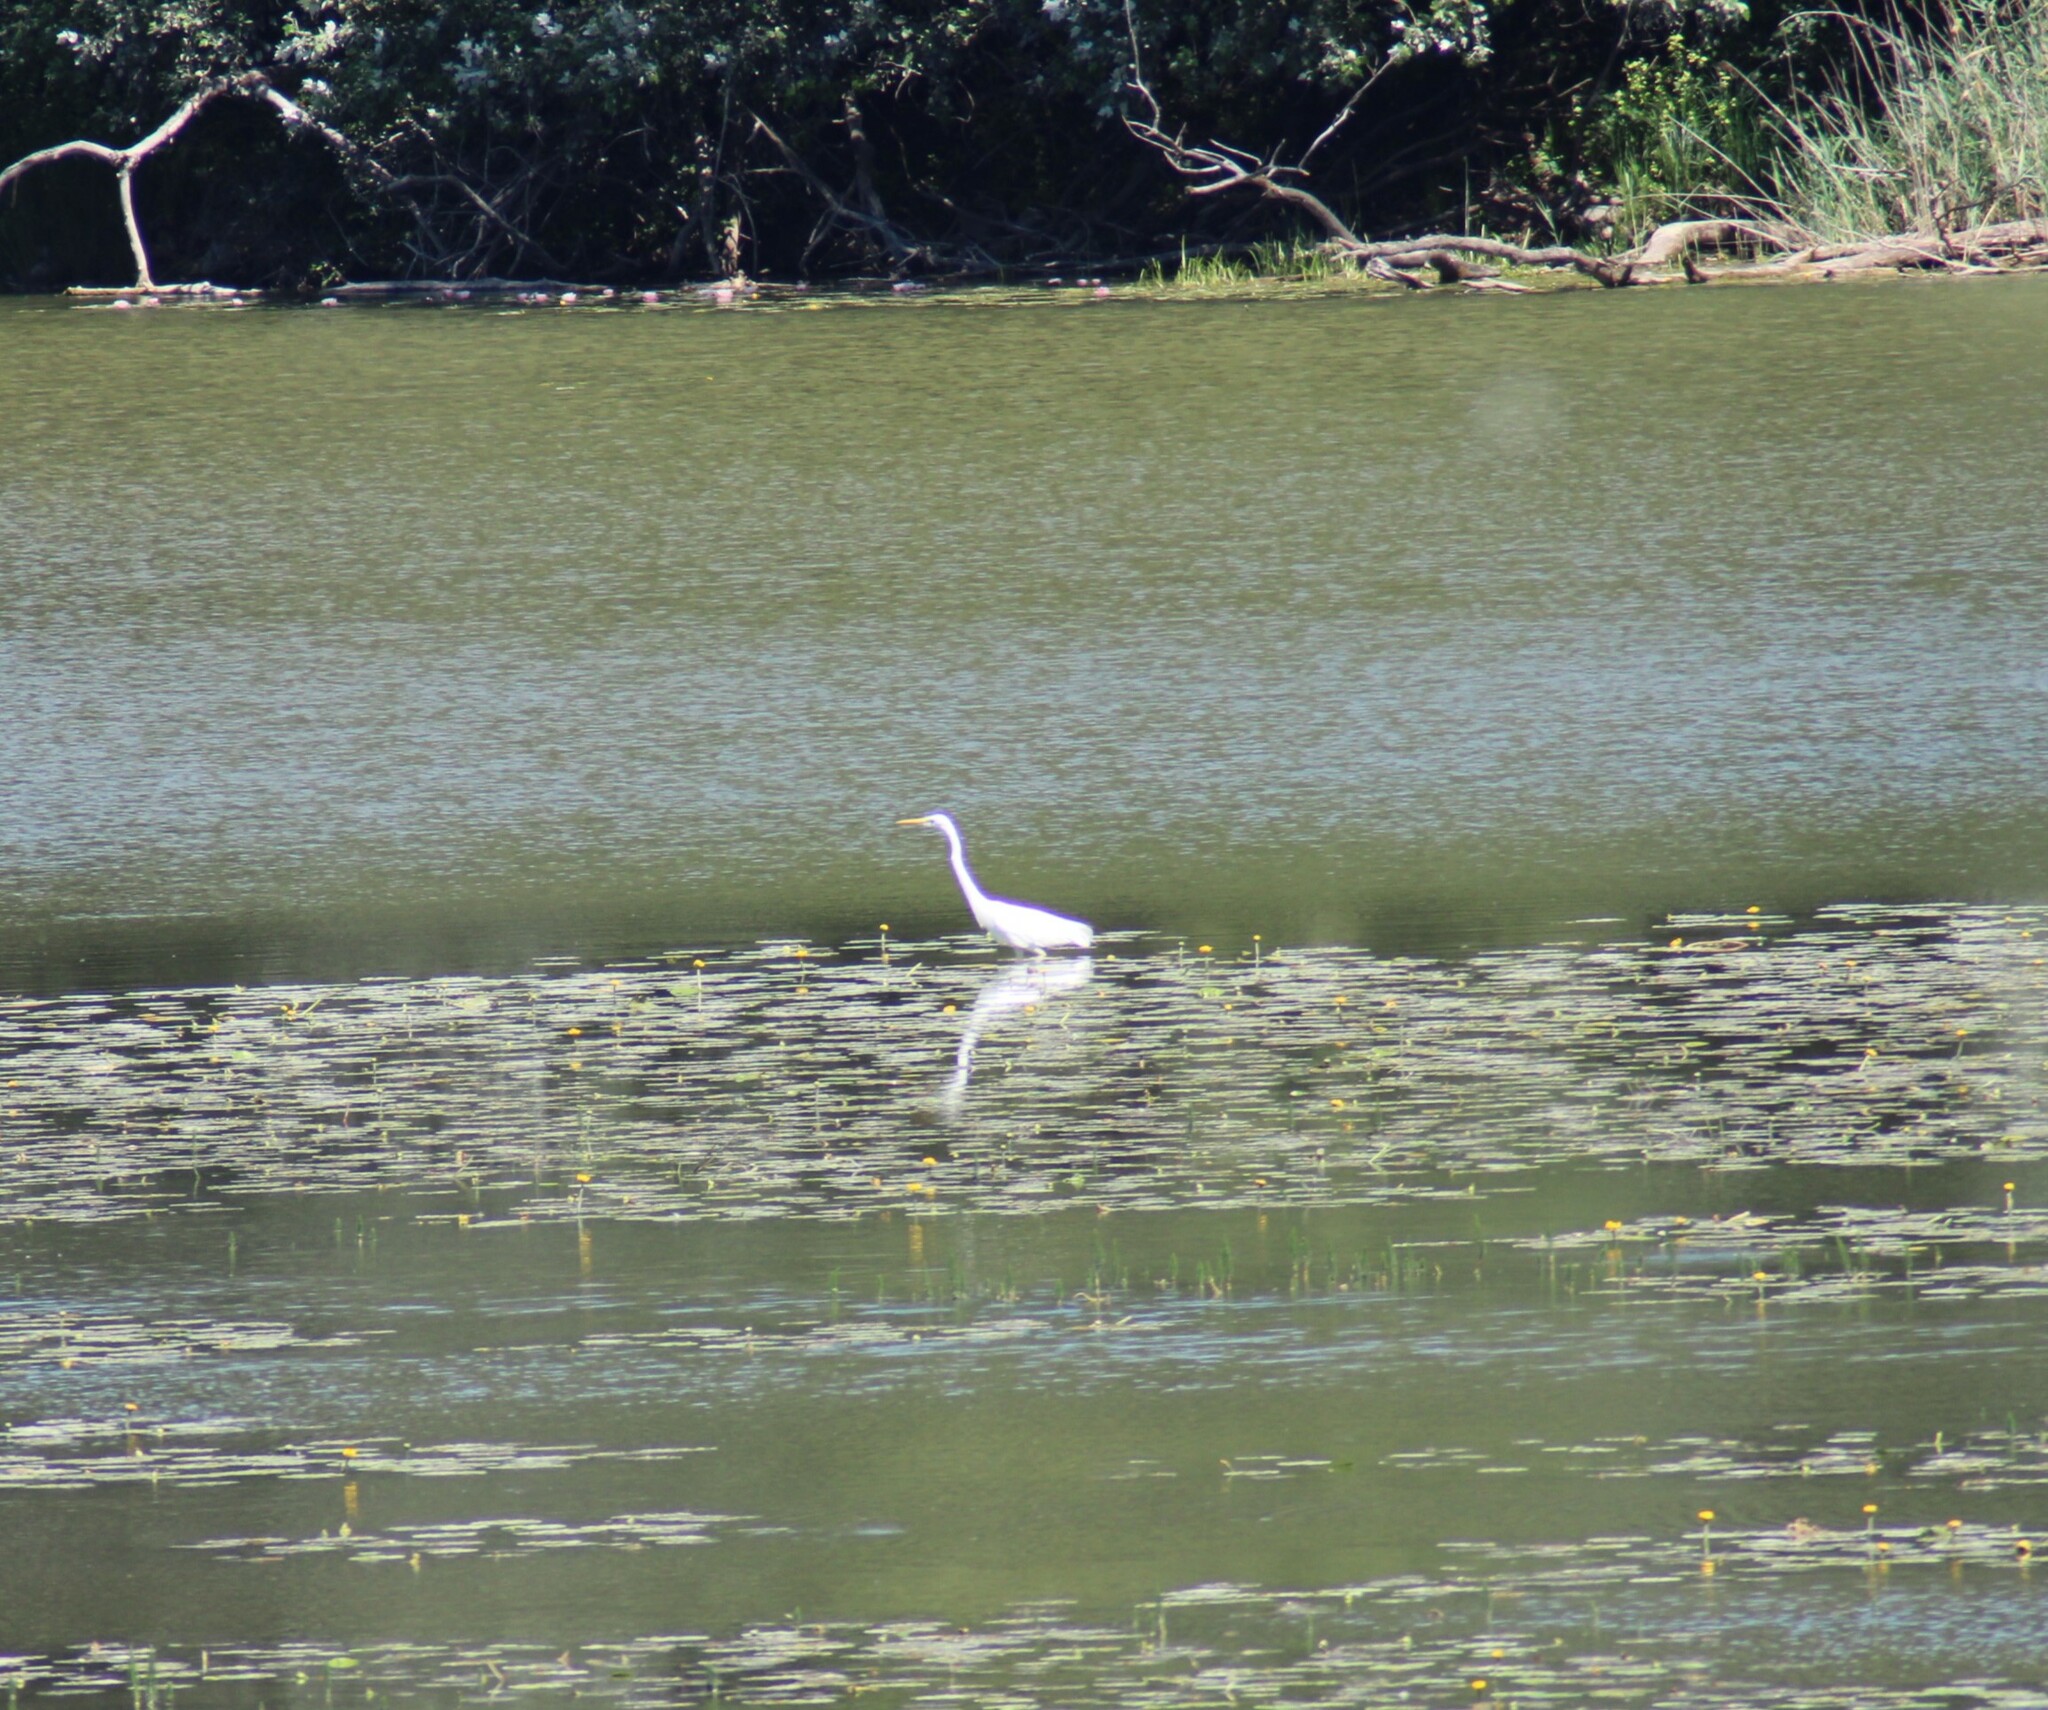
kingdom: Animalia
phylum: Chordata
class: Aves
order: Pelecaniformes
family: Ardeidae
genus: Ardea
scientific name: Ardea alba
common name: Great egret
